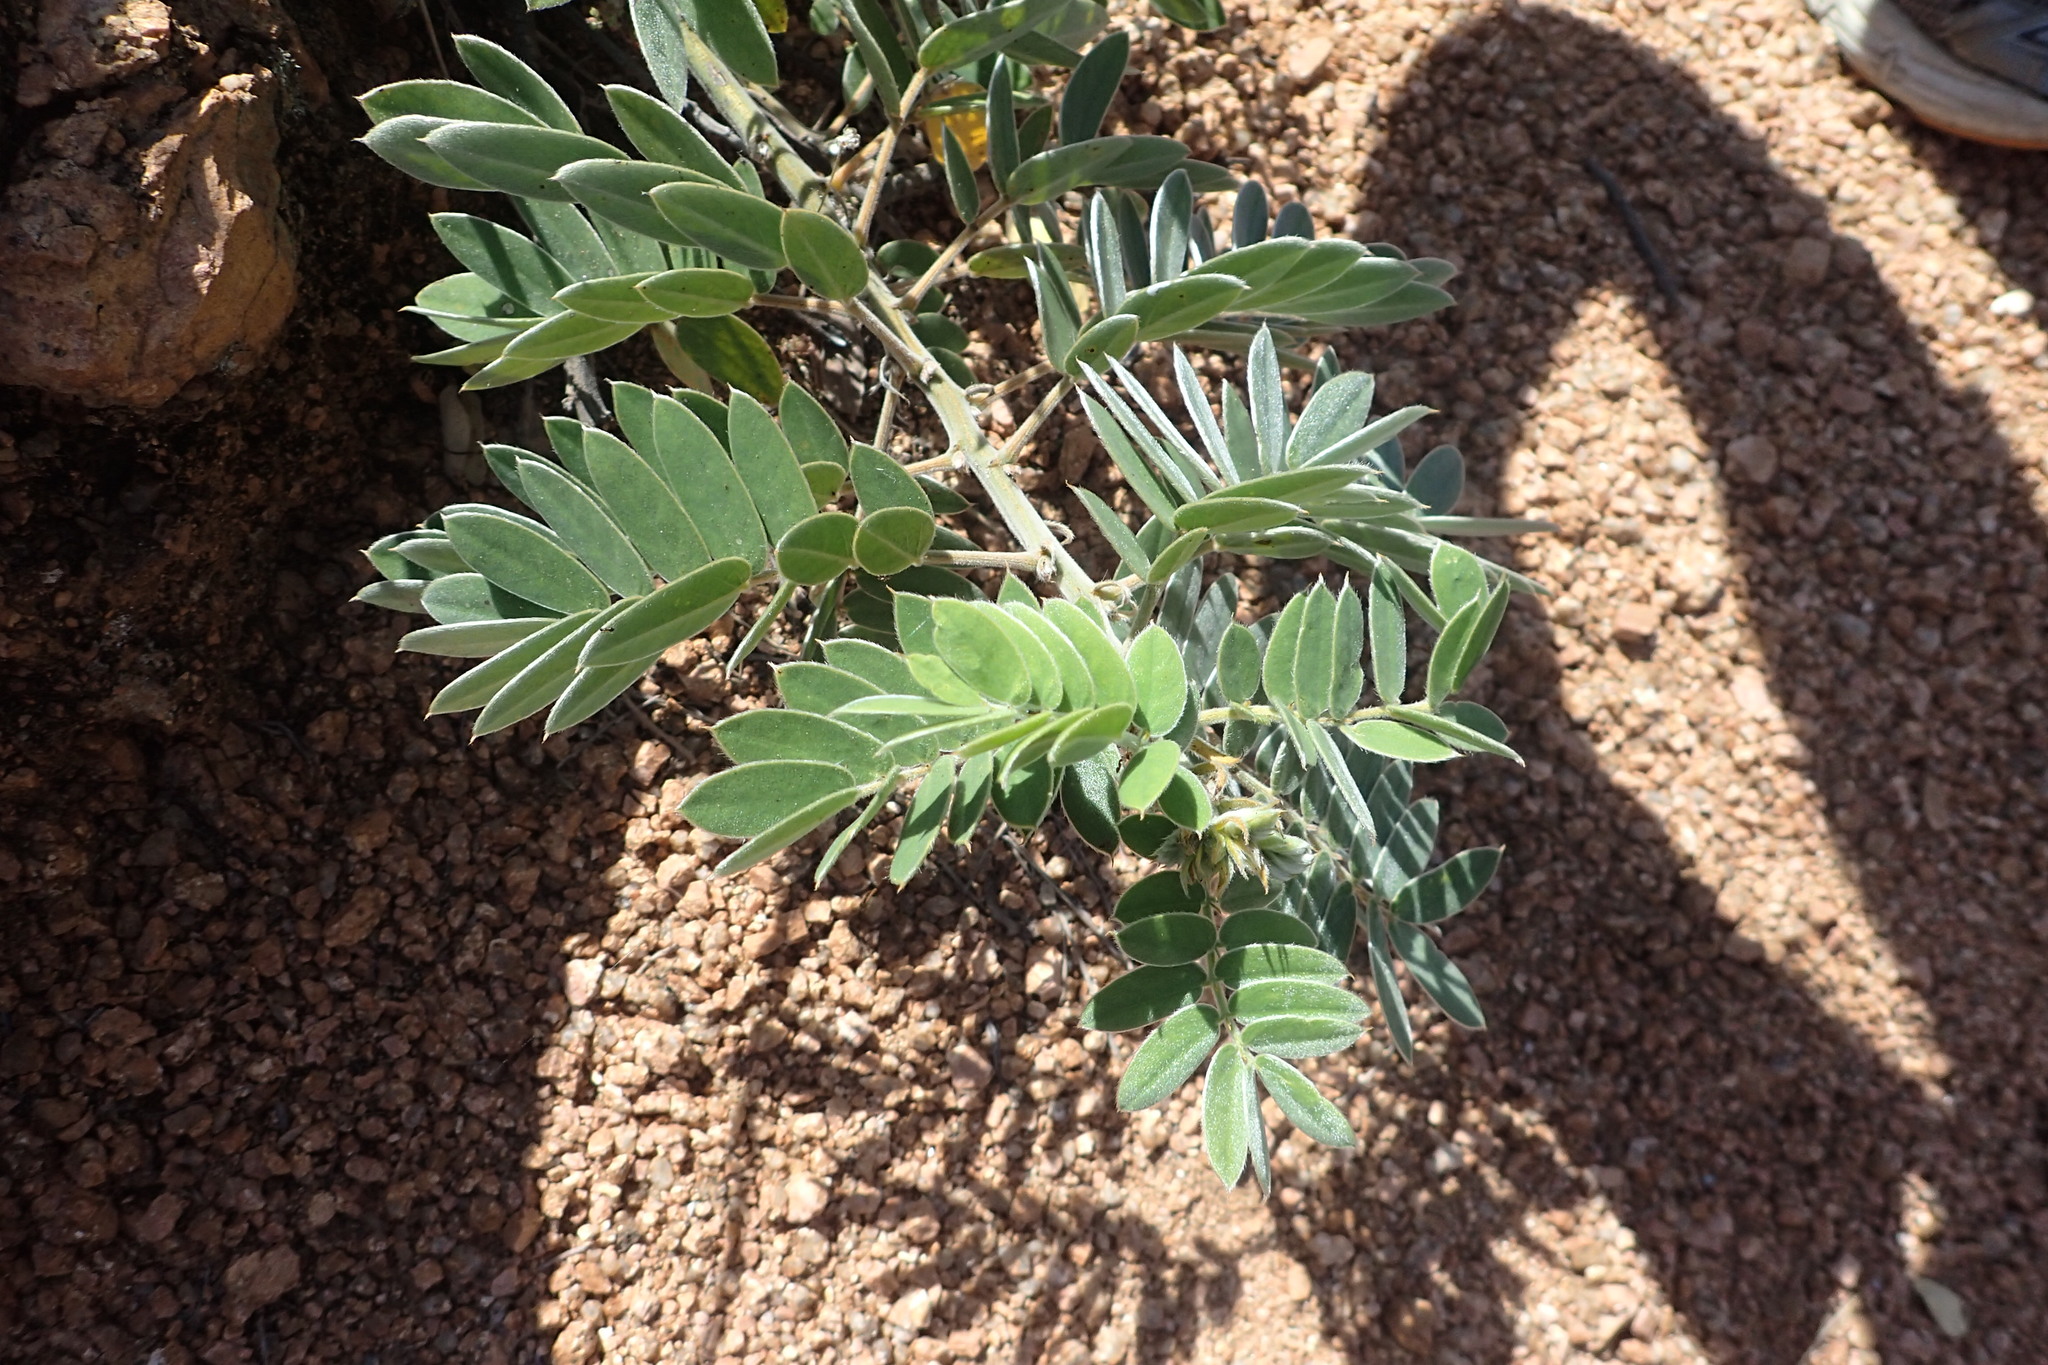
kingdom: Plantae
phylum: Tracheophyta
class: Magnoliopsida
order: Fabales
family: Fabaceae
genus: Senna
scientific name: Senna lindheimeriana
